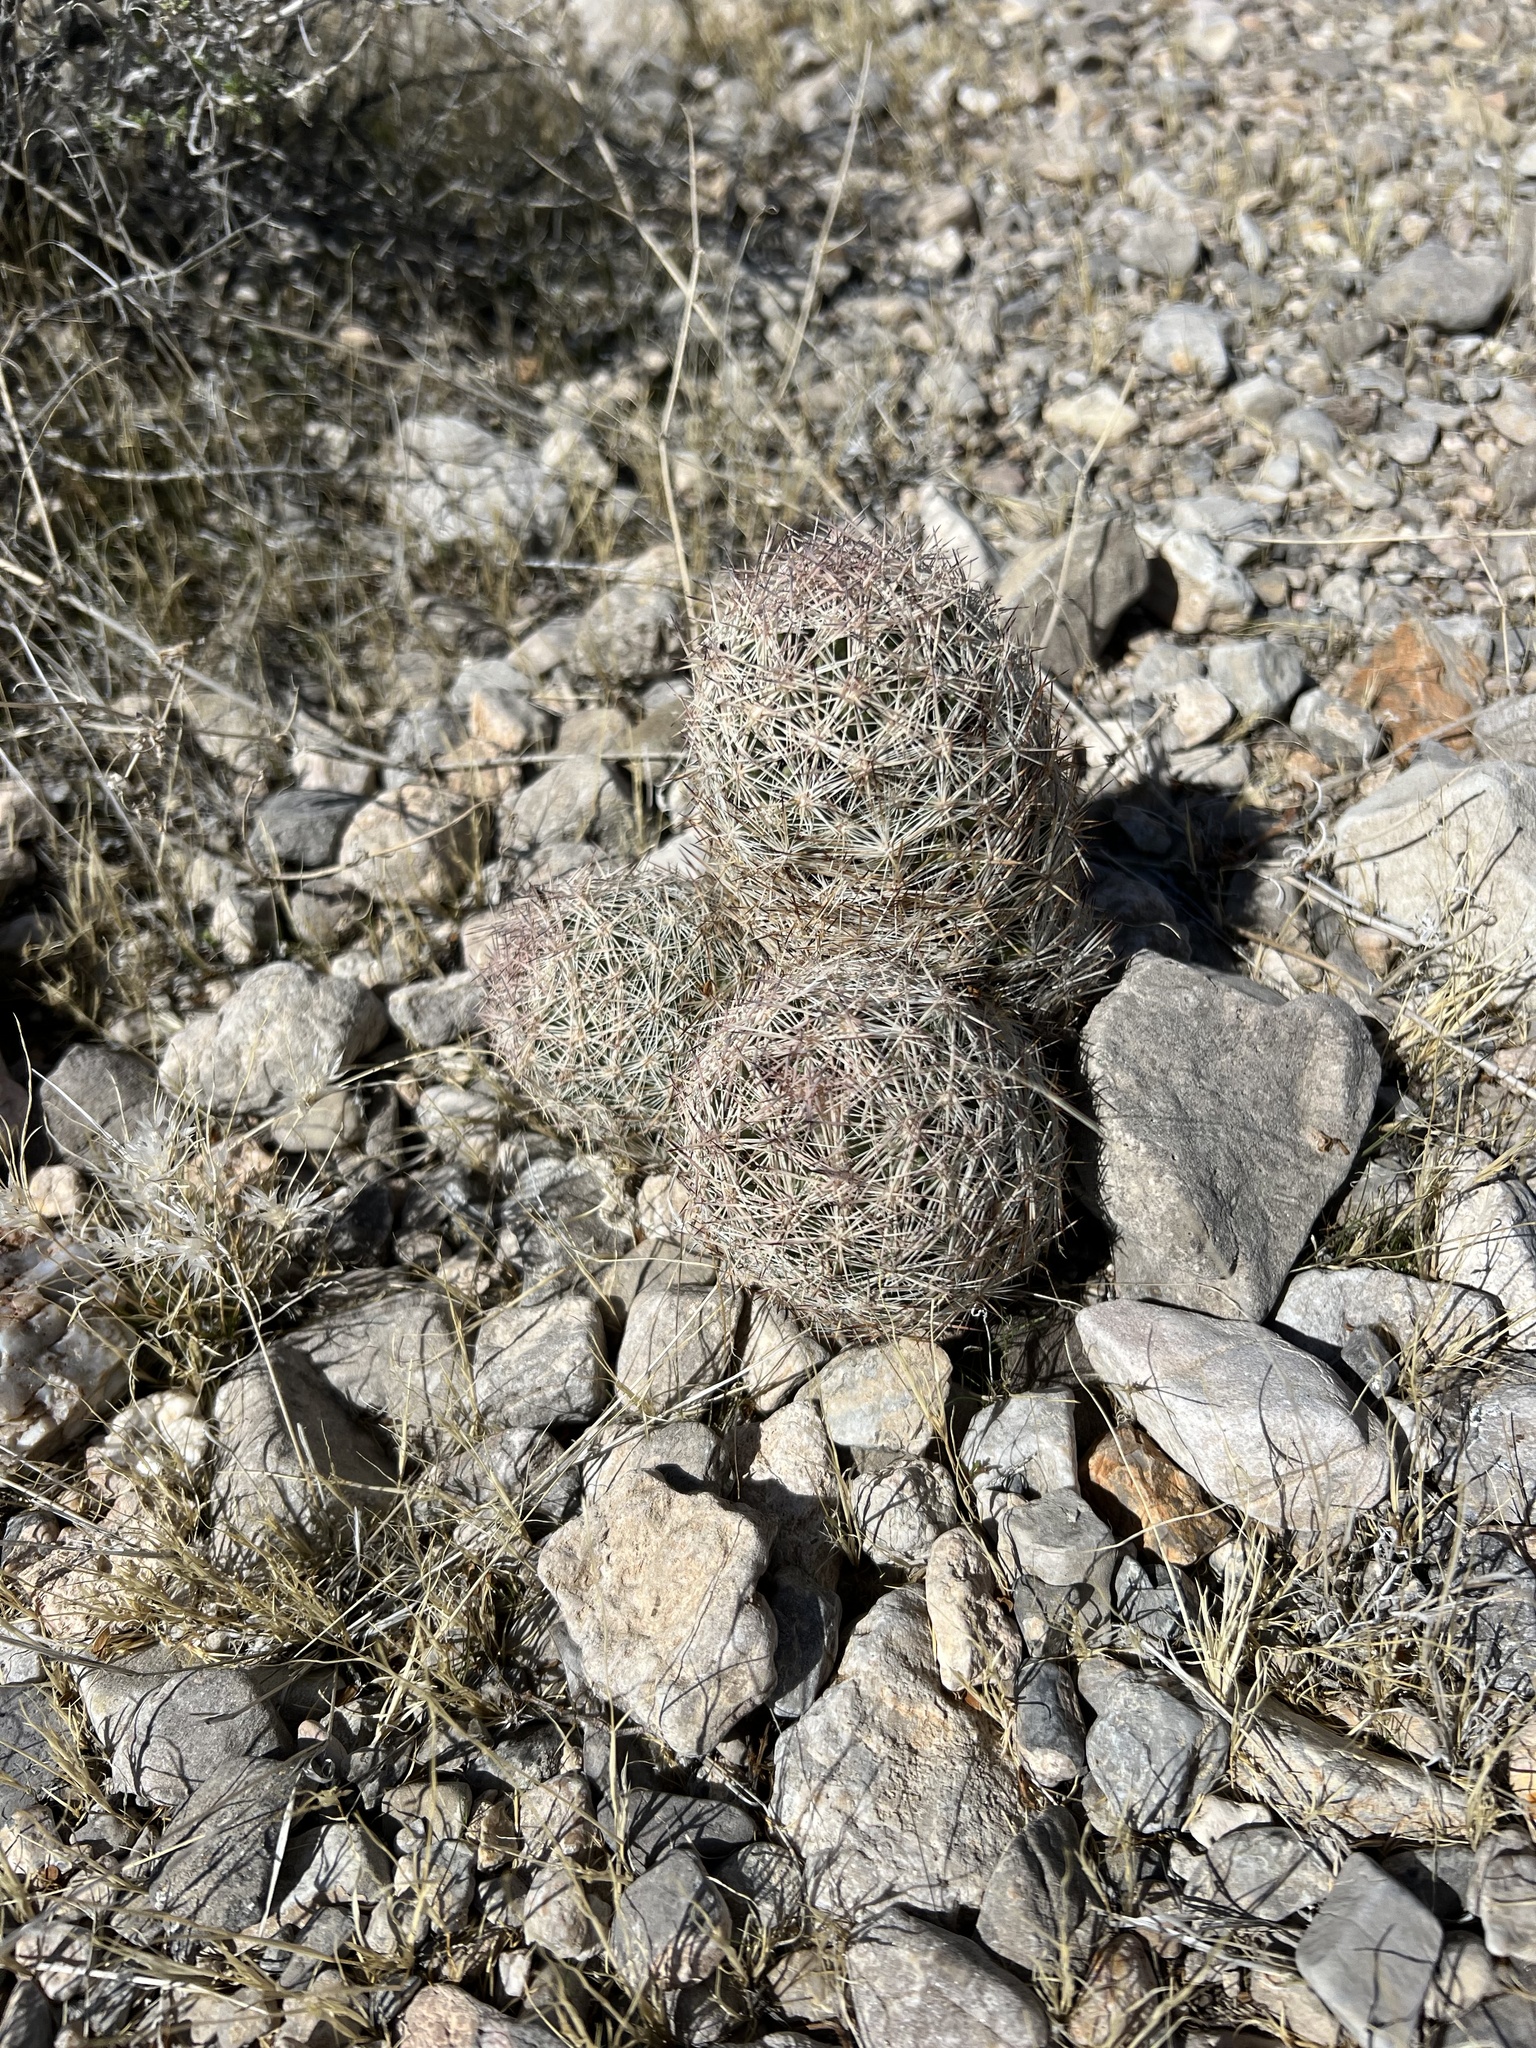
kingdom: Plantae
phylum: Tracheophyta
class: Magnoliopsida
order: Caryophyllales
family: Cactaceae
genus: Pelecyphora
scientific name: Pelecyphora dasyacantha
